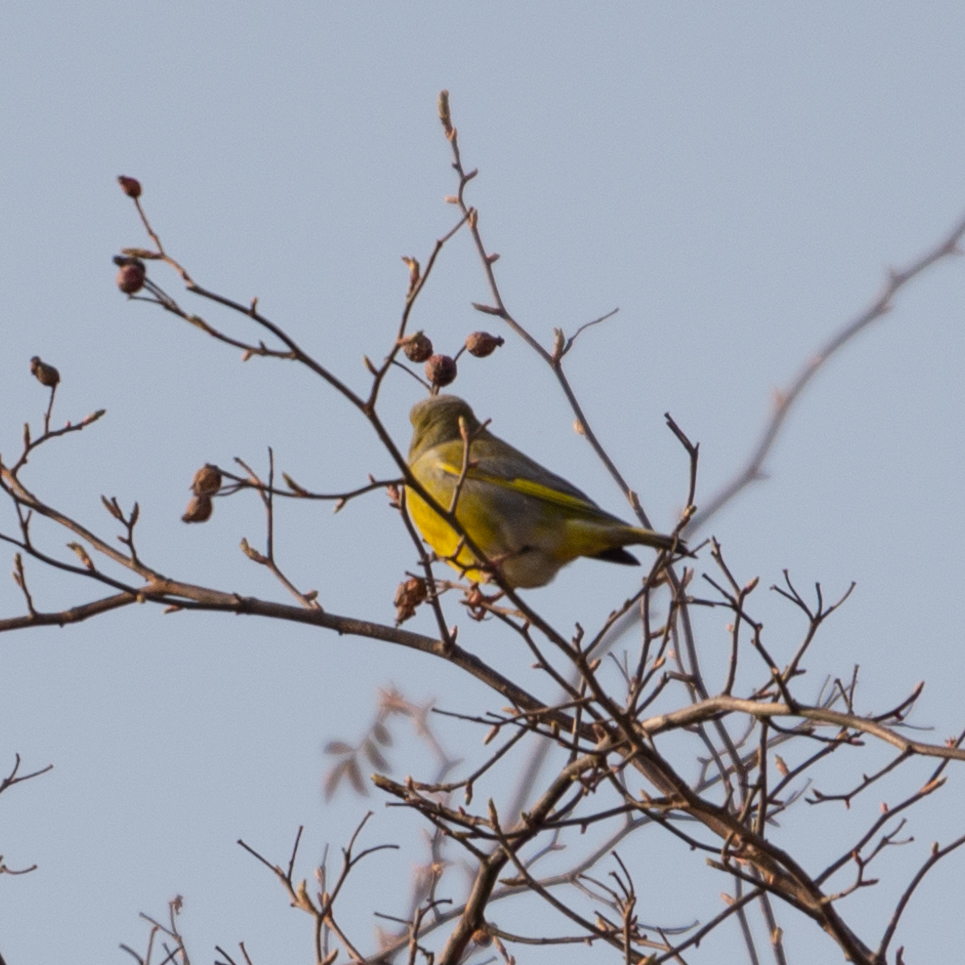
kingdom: Plantae
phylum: Tracheophyta
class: Liliopsida
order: Poales
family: Poaceae
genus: Chloris
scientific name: Chloris chloris
